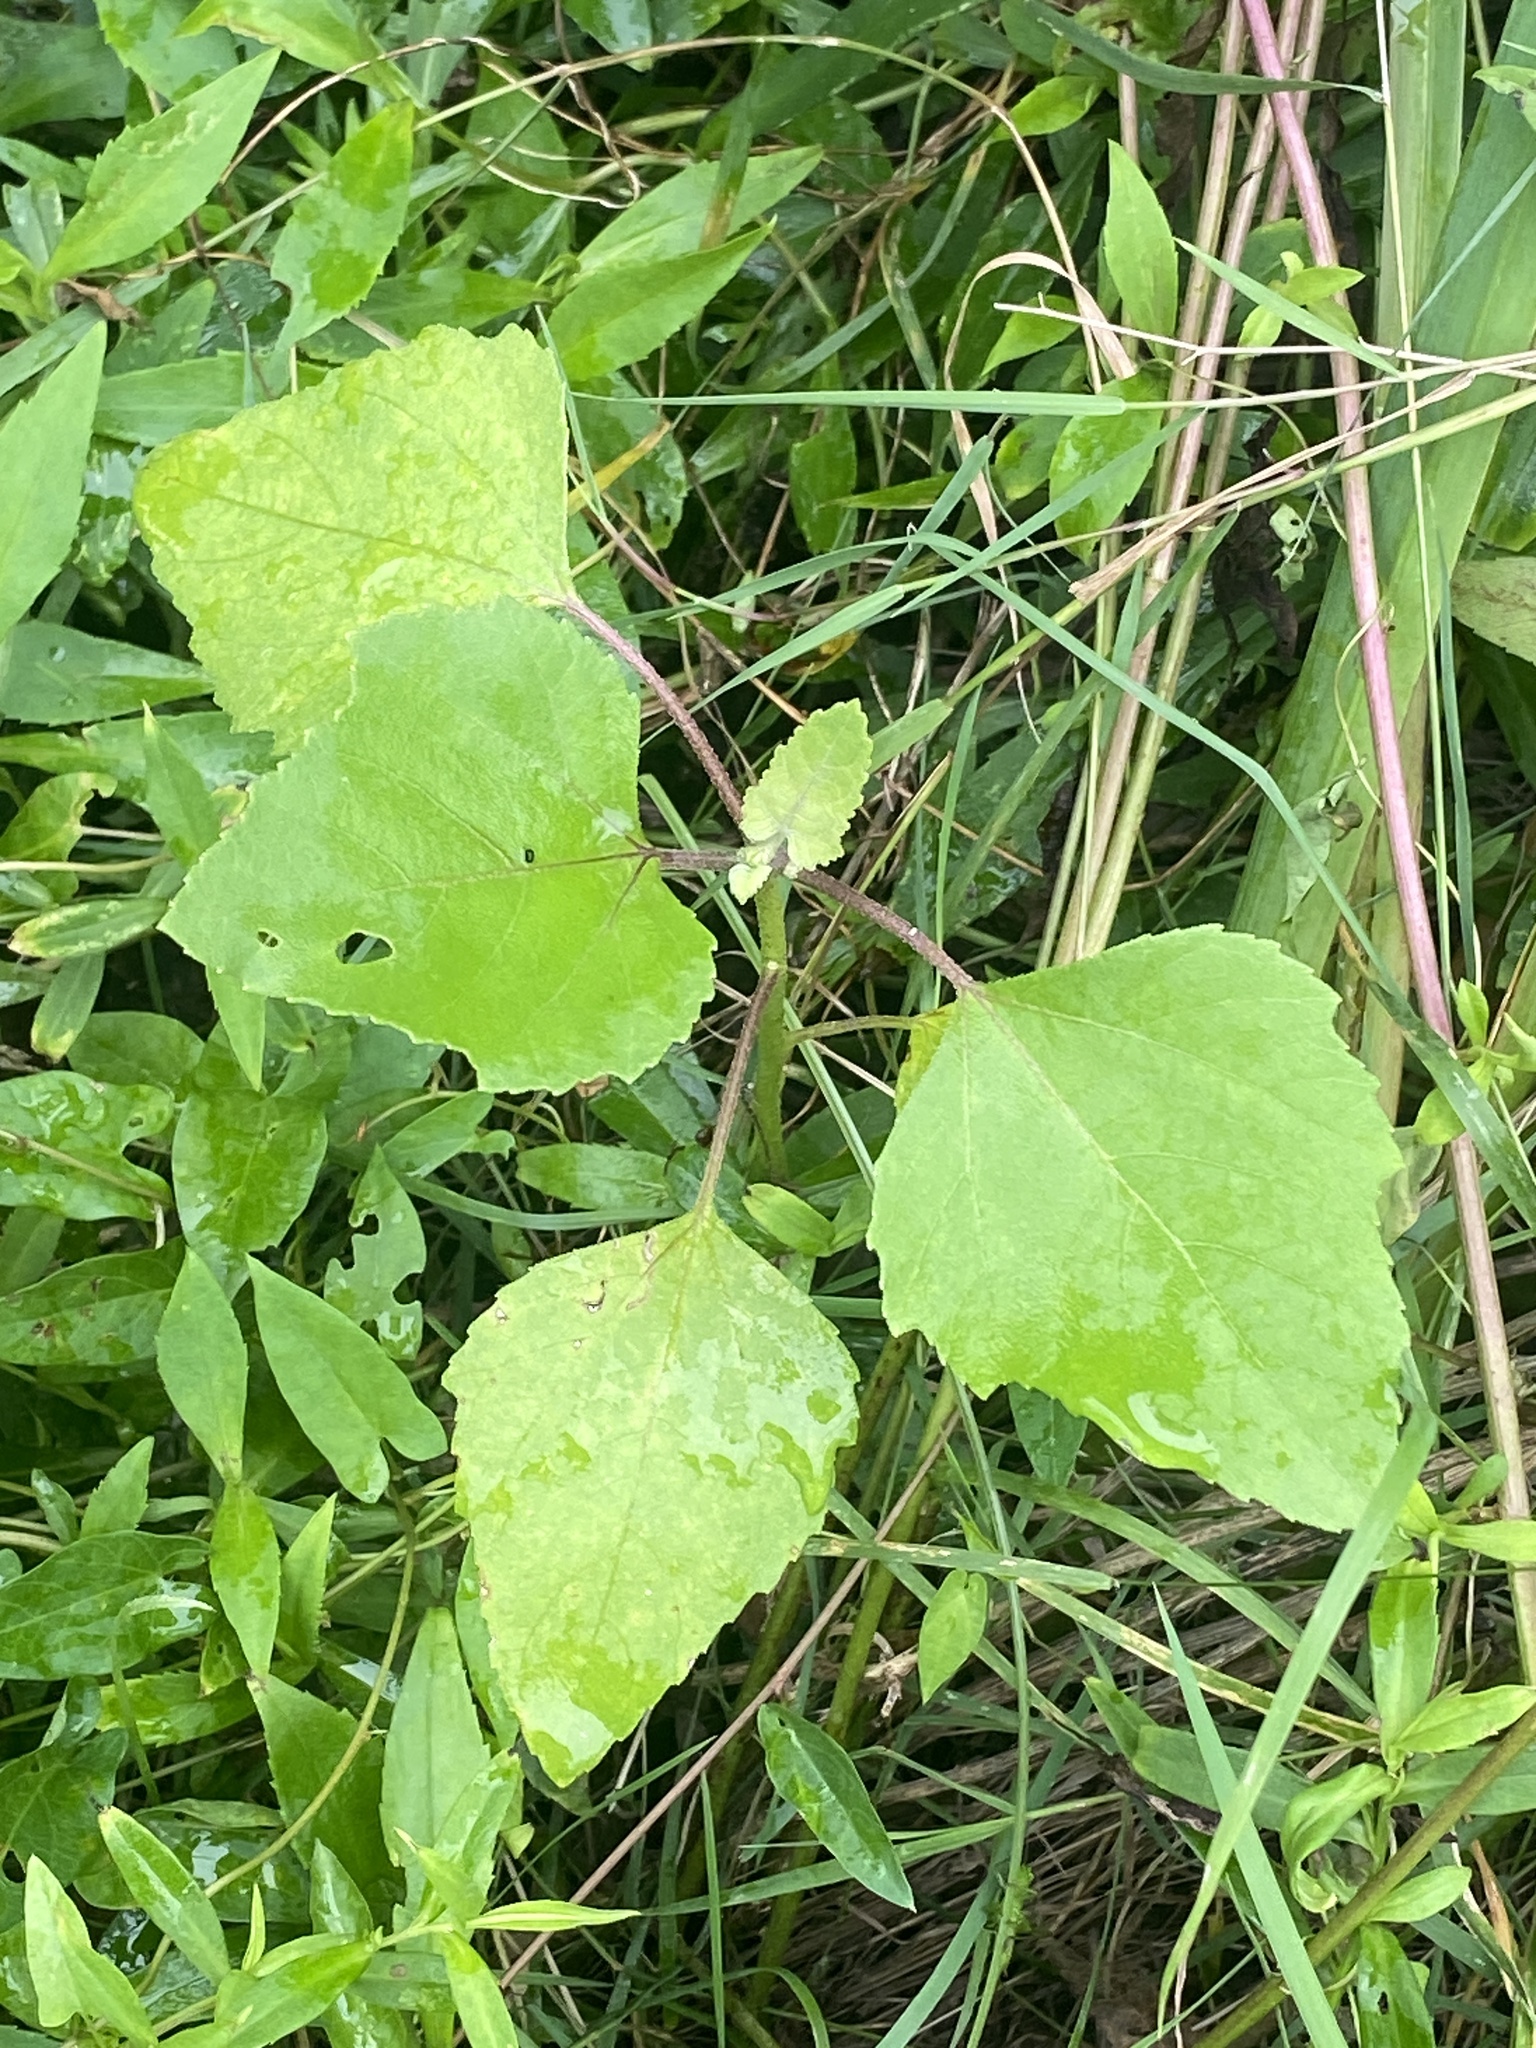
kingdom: Plantae
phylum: Tracheophyta
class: Magnoliopsida
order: Asterales
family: Asteraceae
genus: Xanthium
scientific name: Xanthium strumarium
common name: Rough cocklebur
